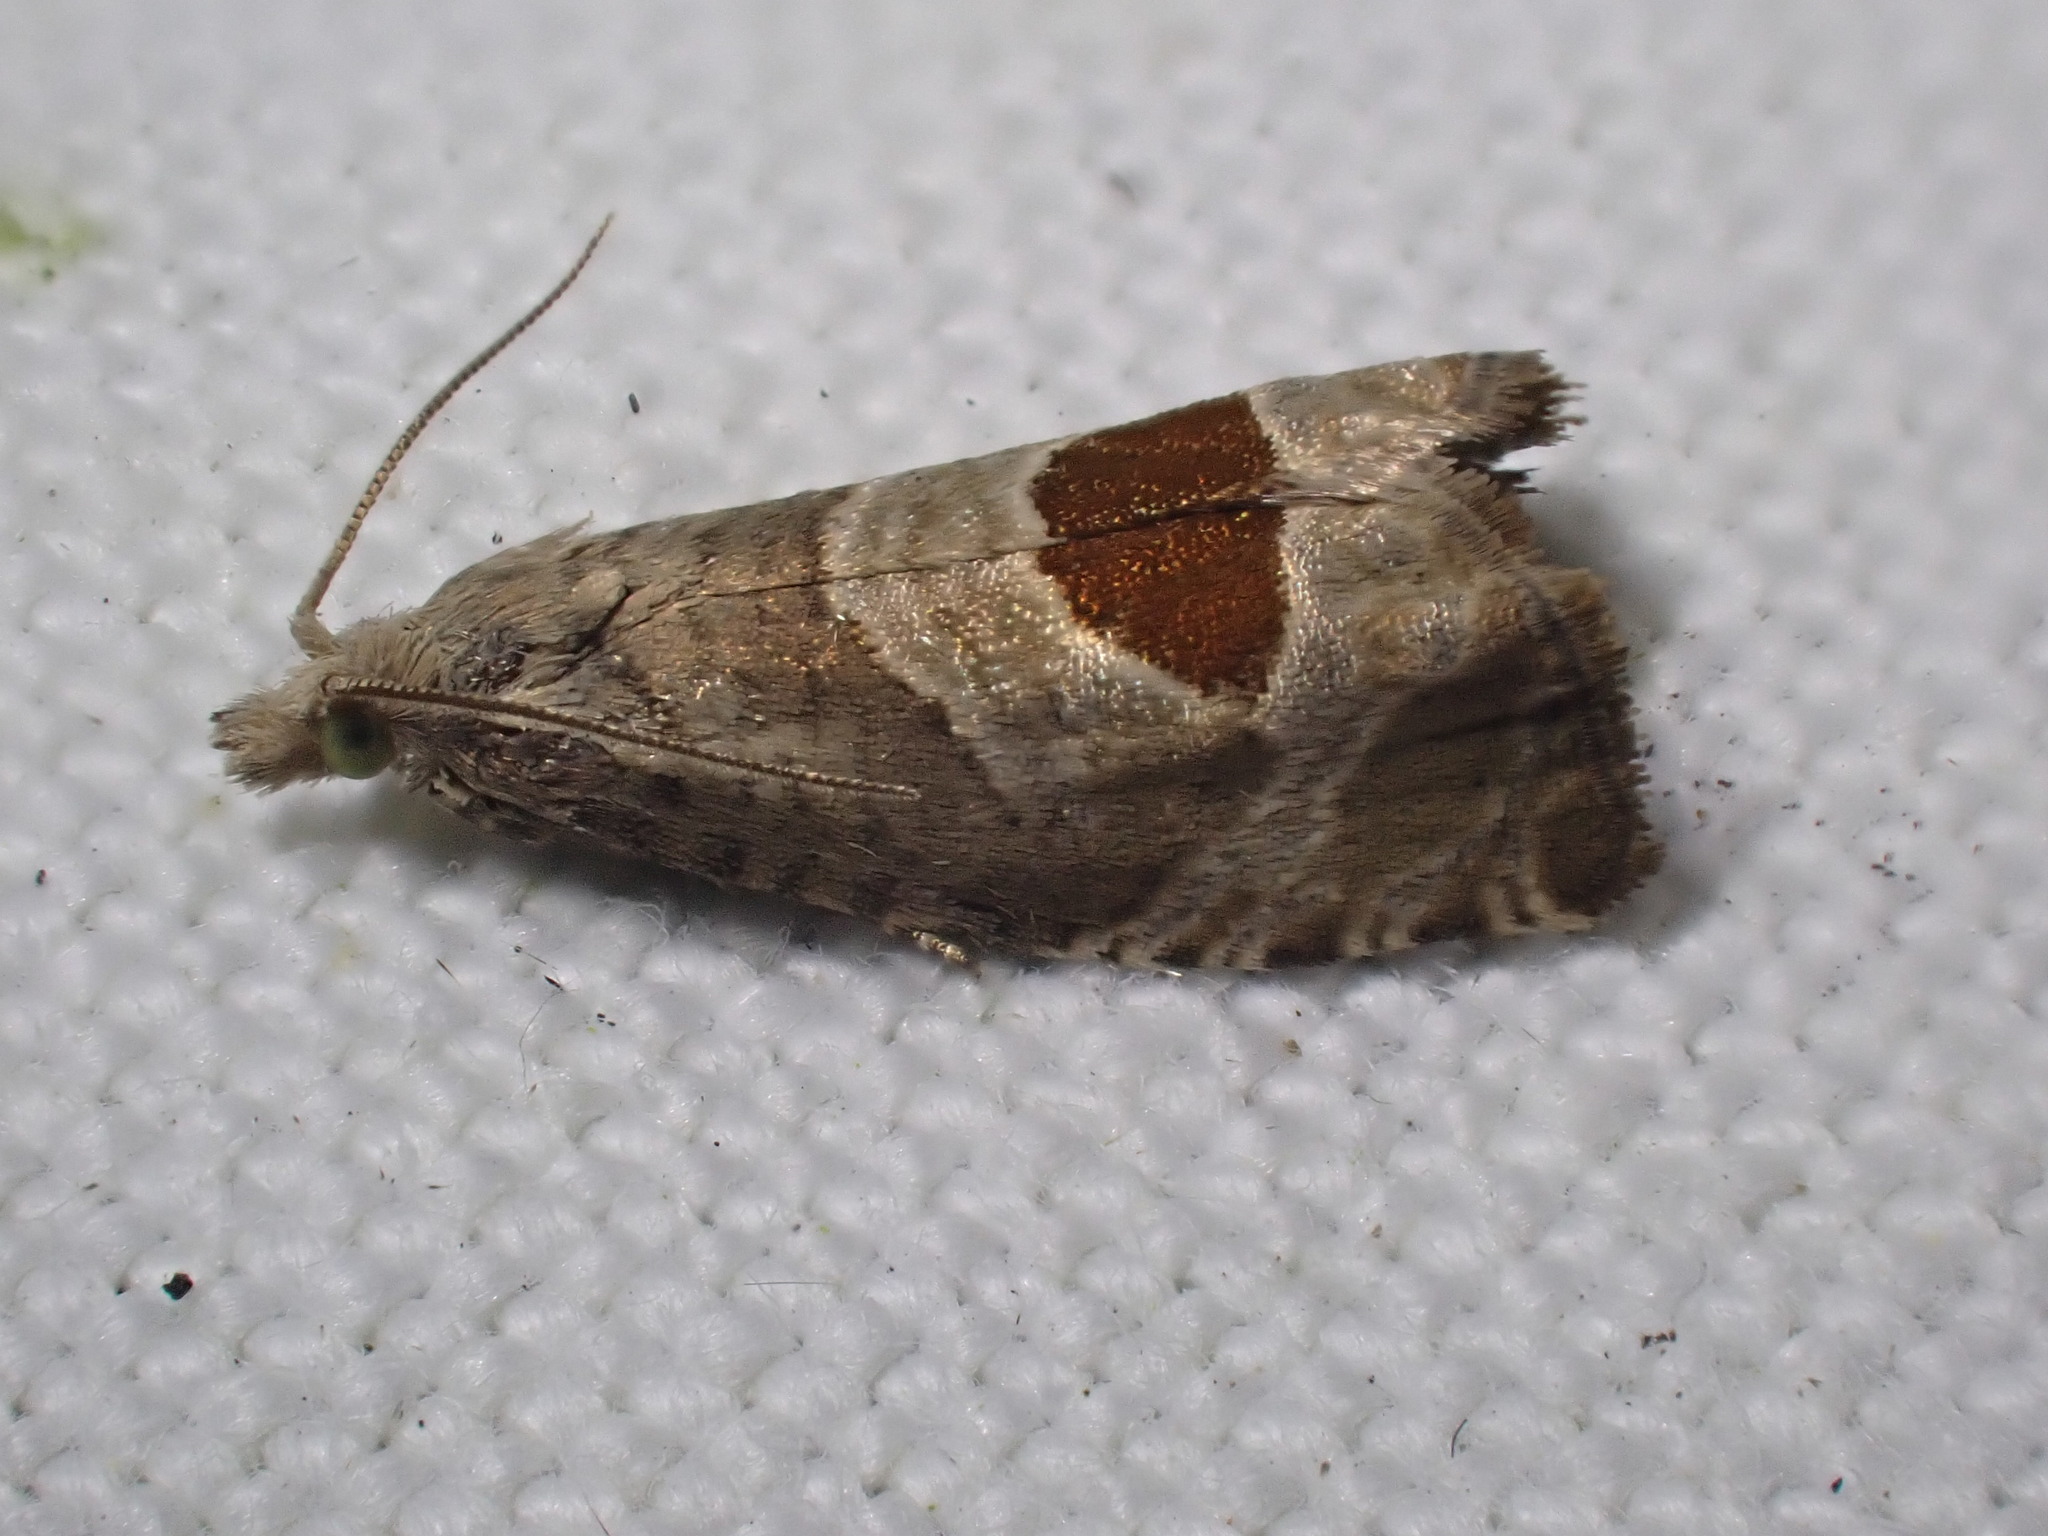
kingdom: Animalia
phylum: Arthropoda
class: Insecta
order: Lepidoptera
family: Tortricidae
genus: Notocelia
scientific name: Notocelia uddmanniana
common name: Bramble shoot moth
